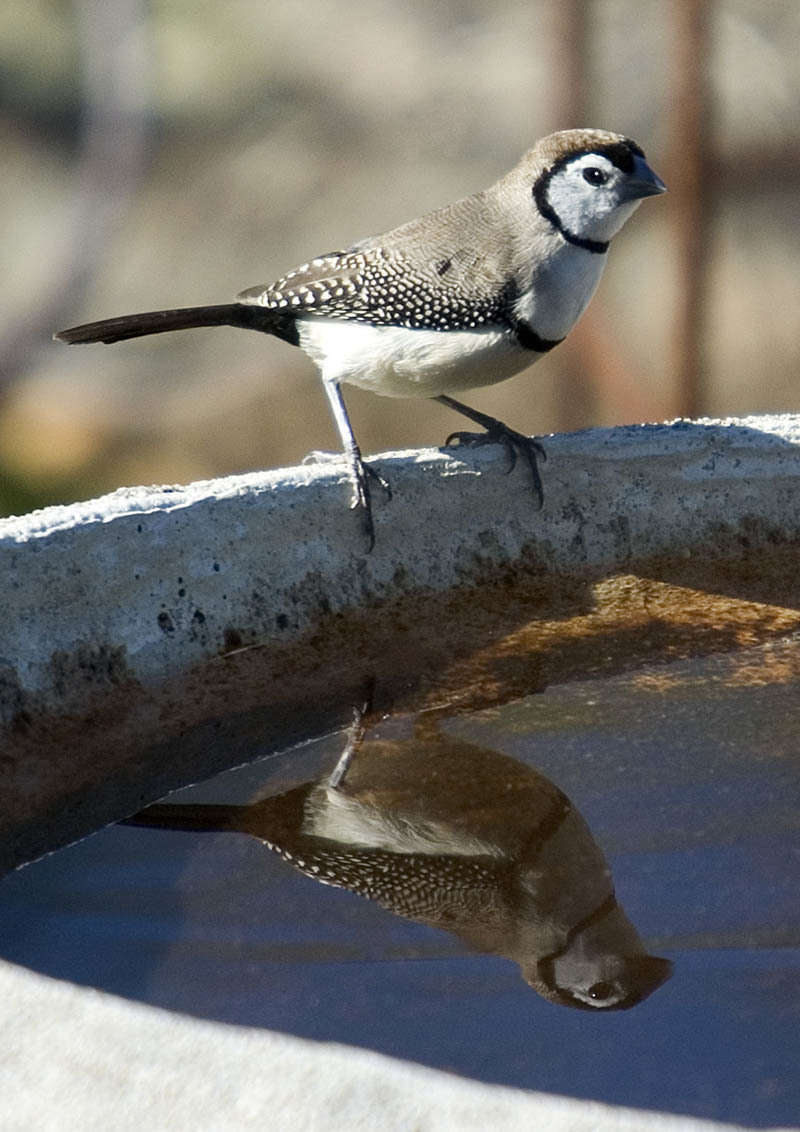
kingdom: Animalia
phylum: Chordata
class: Aves
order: Passeriformes
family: Estrildidae
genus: Taeniopygia
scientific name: Taeniopygia bichenovii
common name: Double-barred finch
